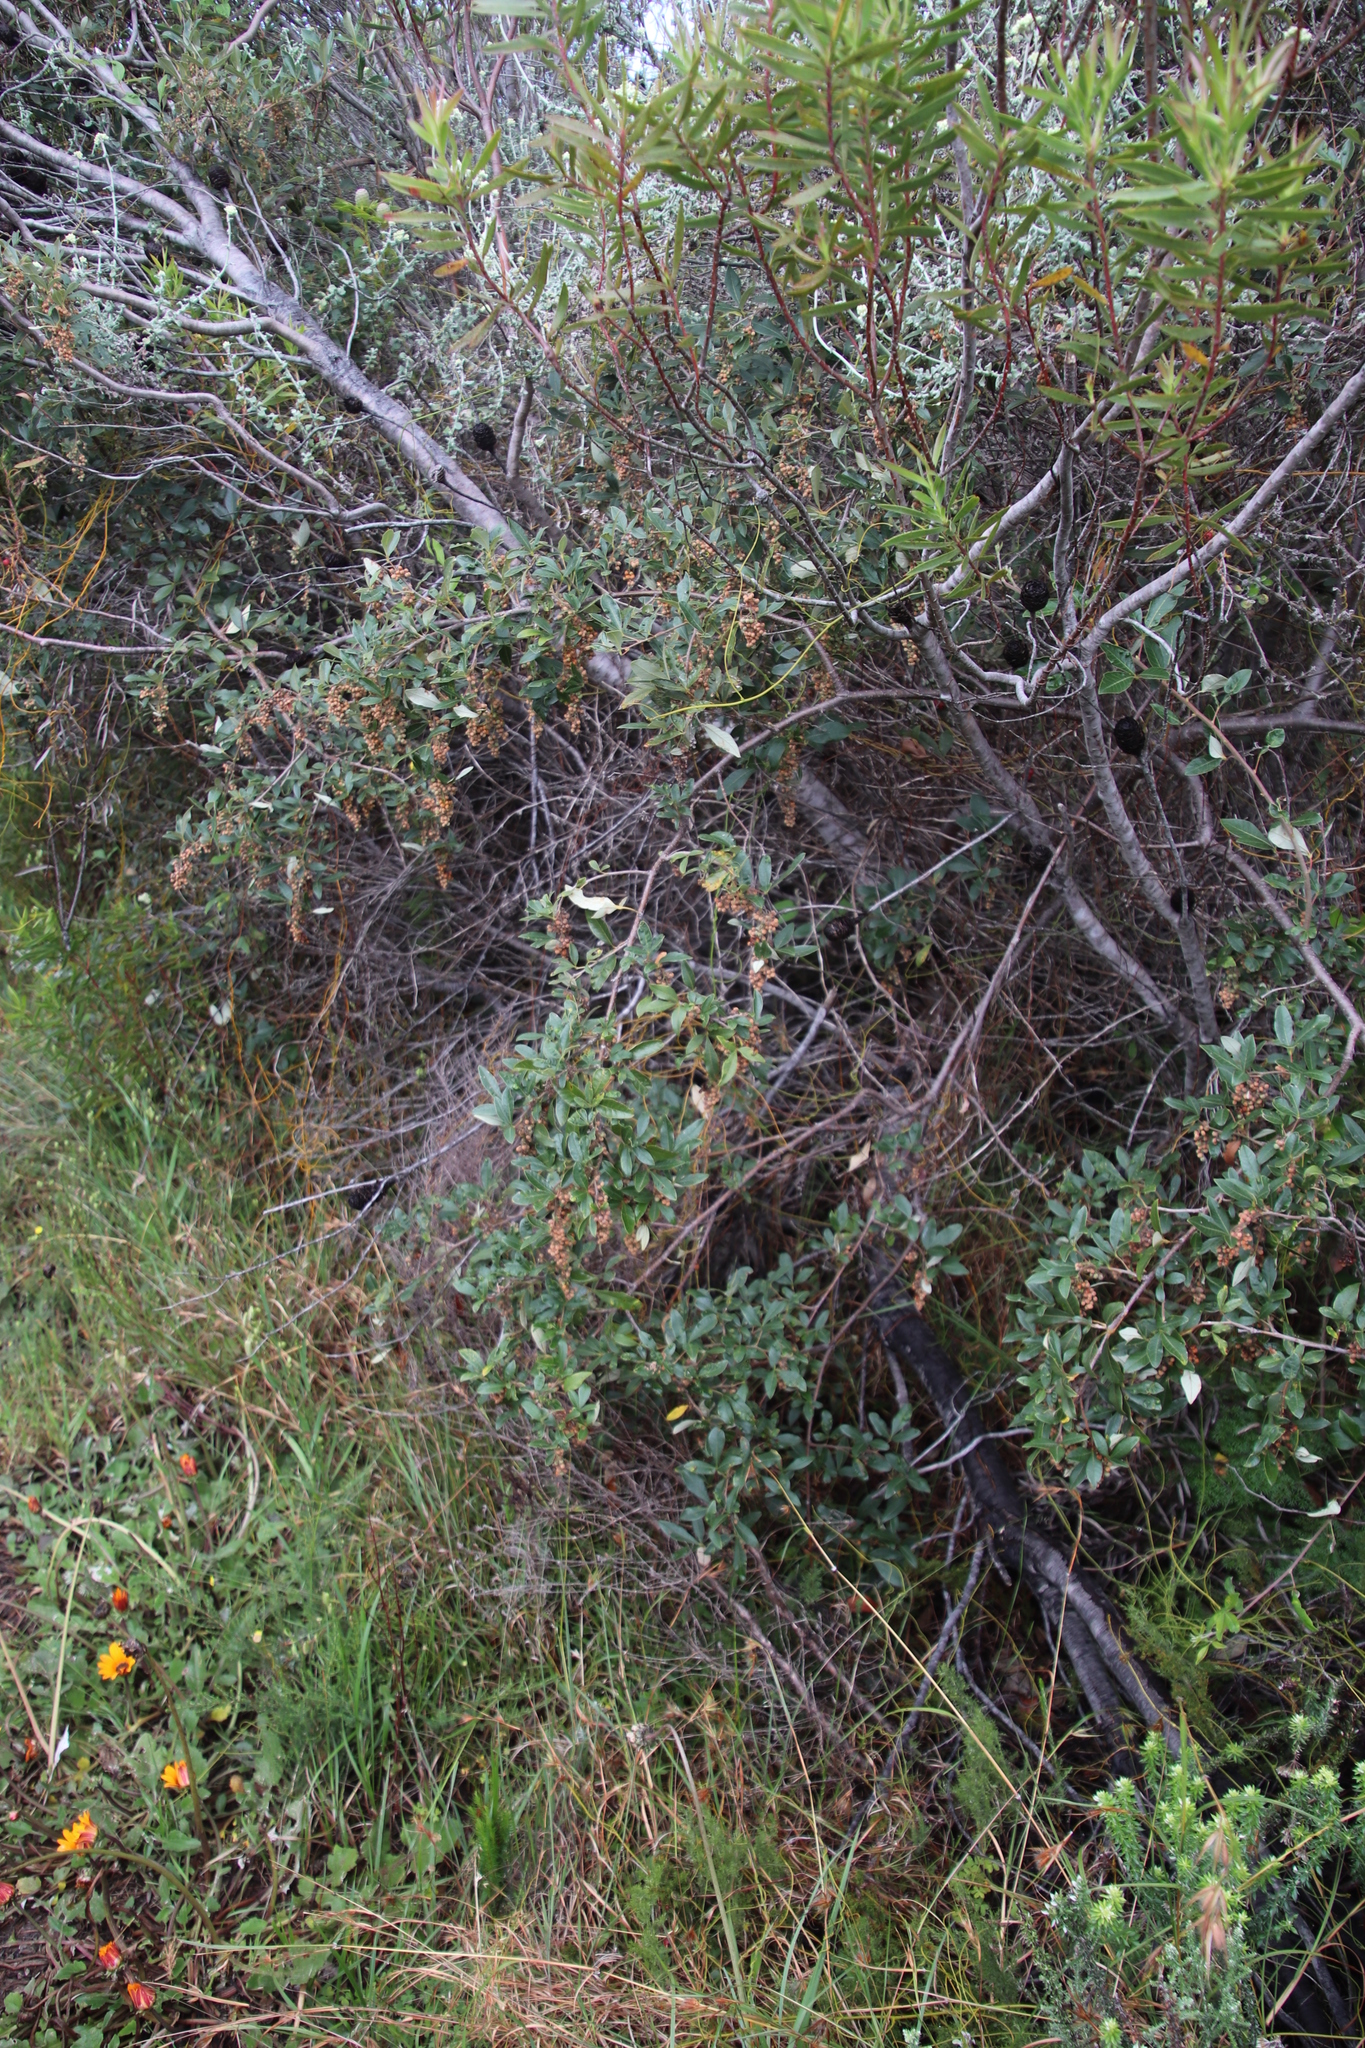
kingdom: Plantae
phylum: Tracheophyta
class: Magnoliopsida
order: Sapindales
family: Anacardiaceae
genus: Searsia
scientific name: Searsia tomentosa
